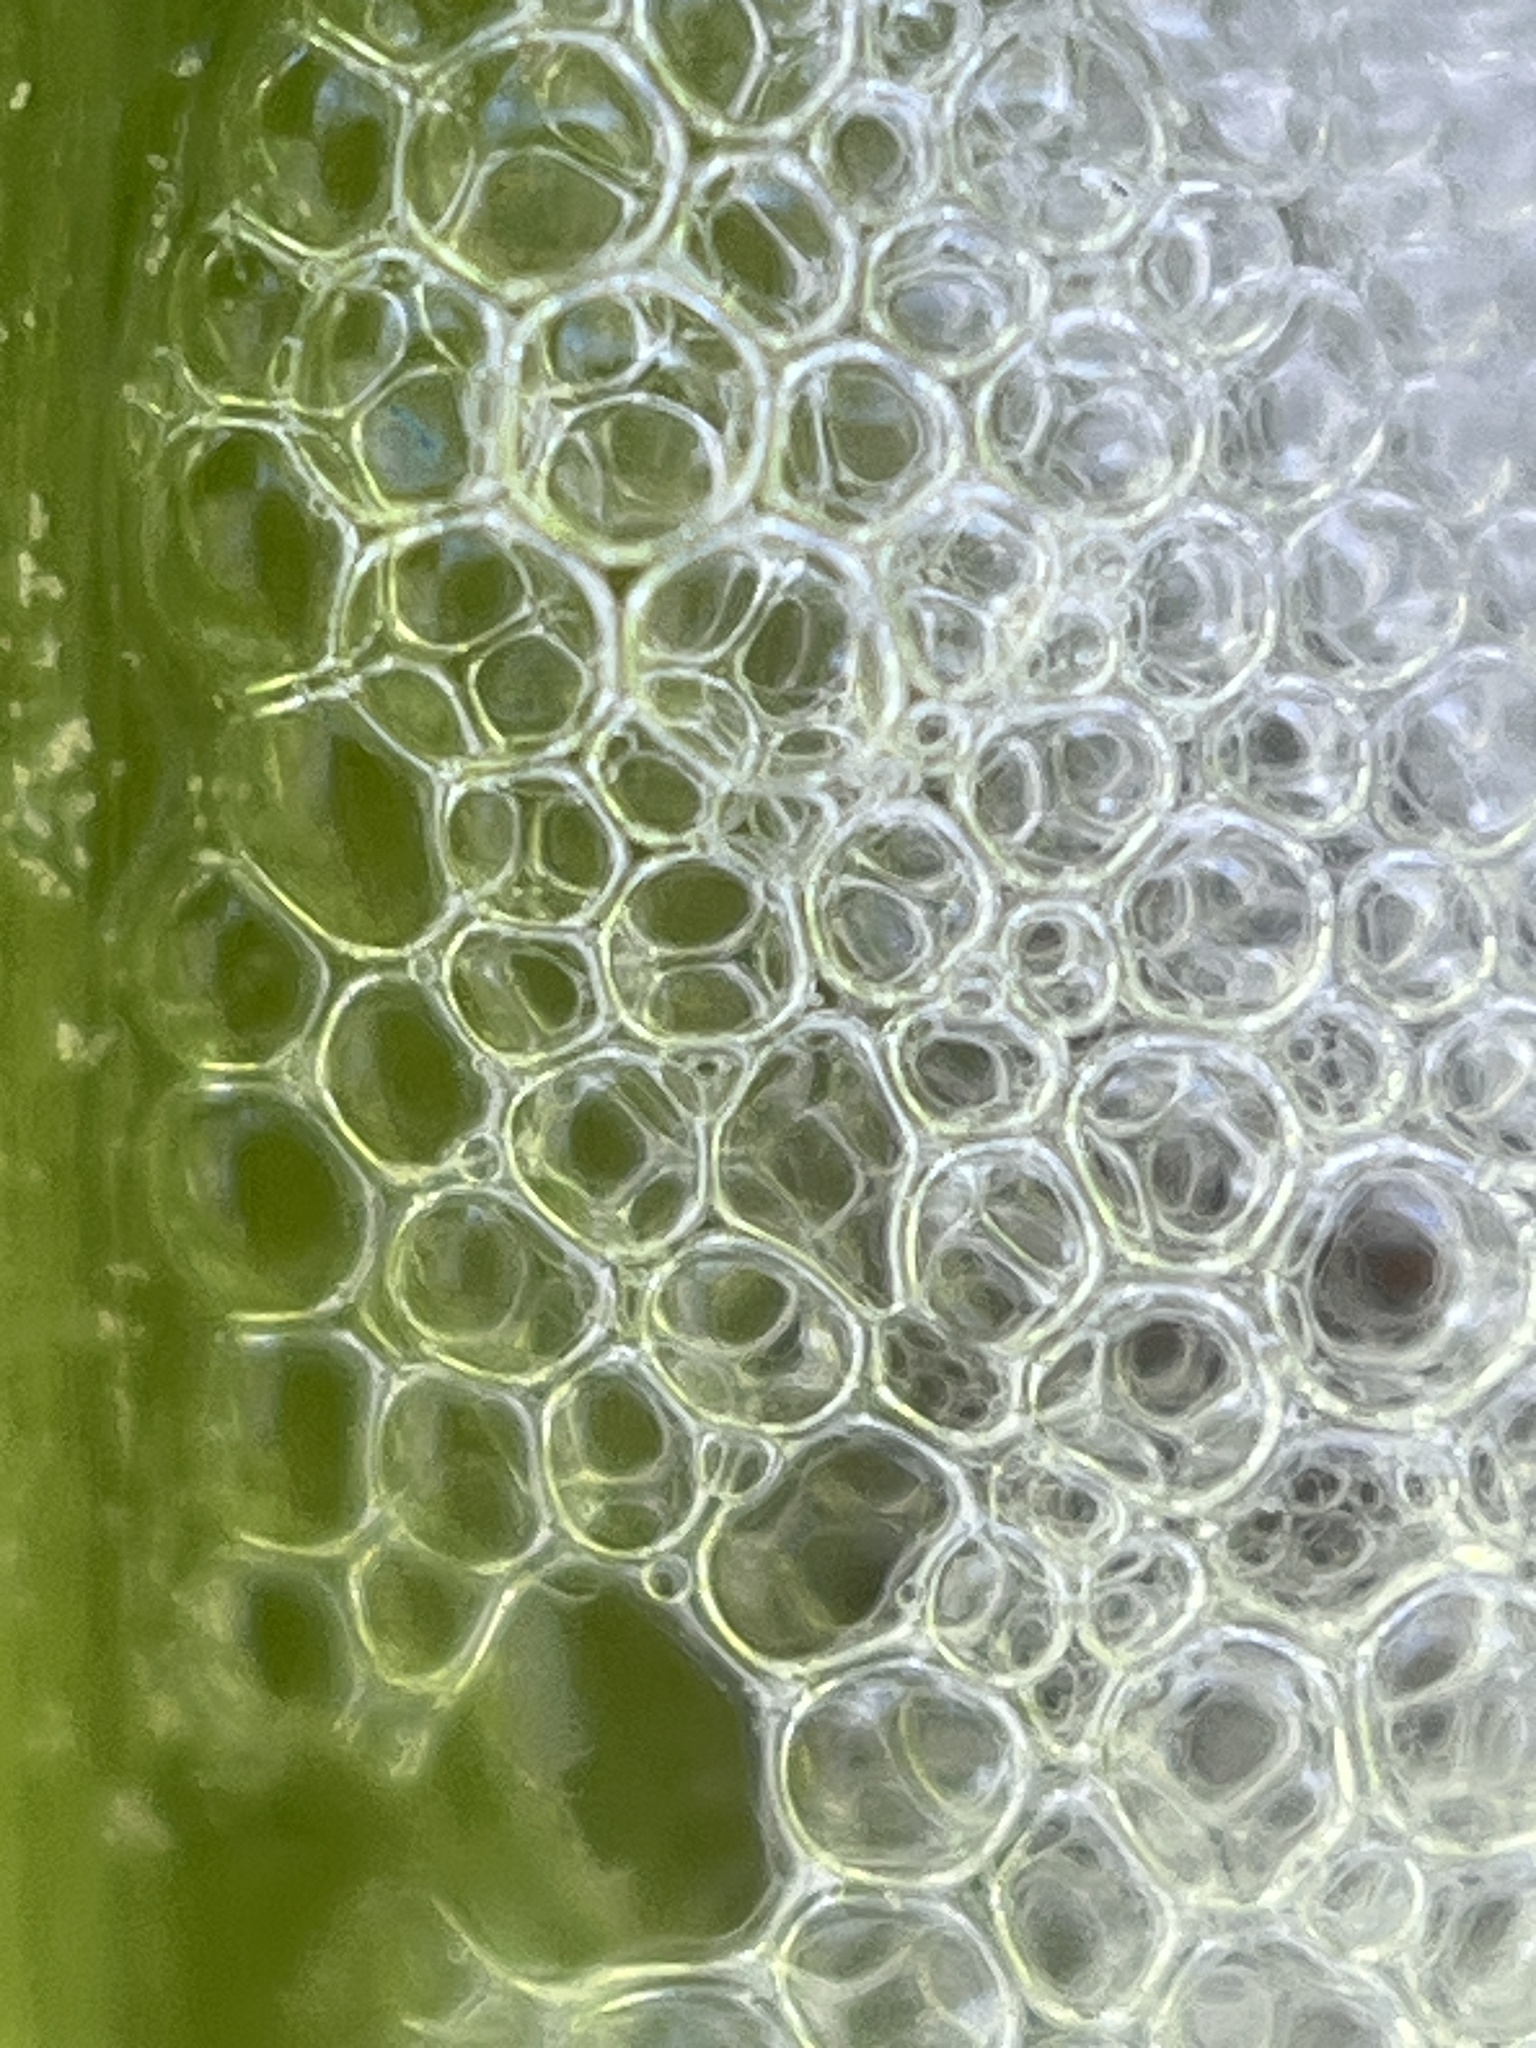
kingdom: Animalia
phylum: Arthropoda
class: Insecta
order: Hemiptera
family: Aphrophoridae
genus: Philaenus
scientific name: Philaenus spumarius
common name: Meadow spittlebug
